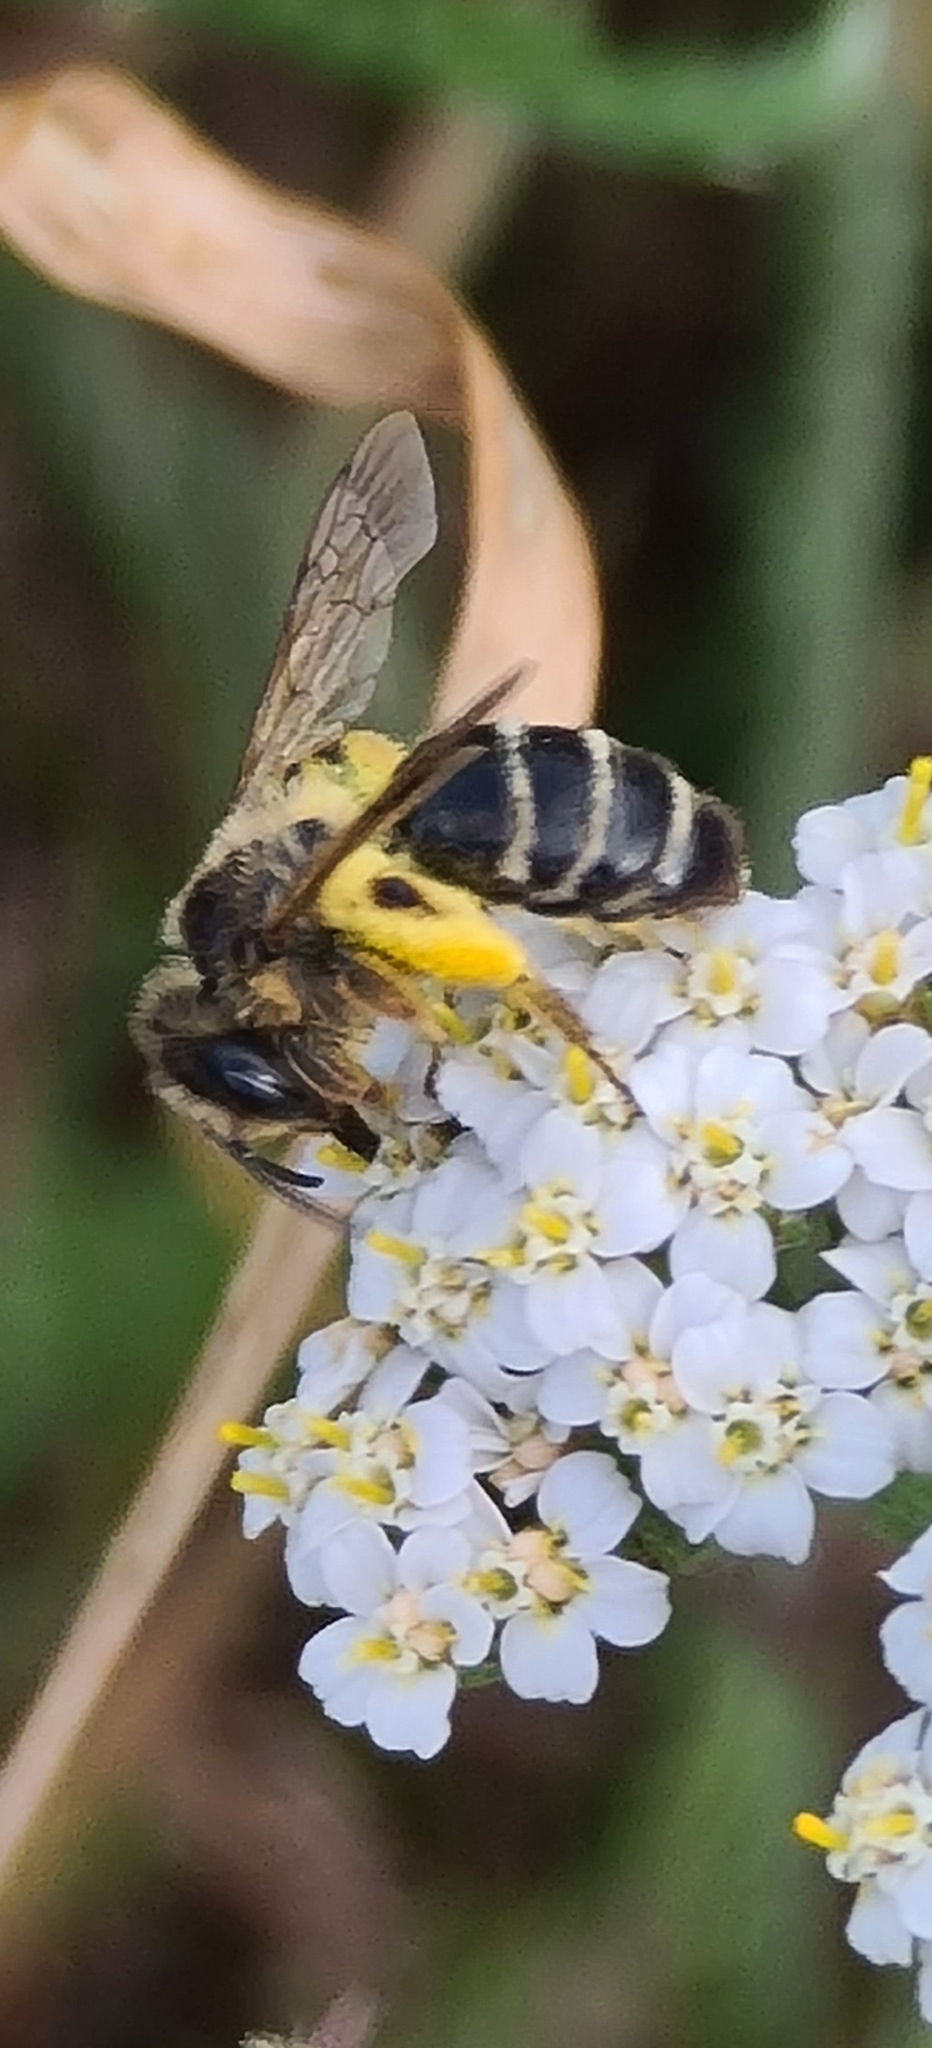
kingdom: Animalia
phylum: Arthropoda
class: Insecta
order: Hymenoptera
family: Andrenidae
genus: Andrena
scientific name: Andrena flavipes
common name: Yellow-legged mining bee
